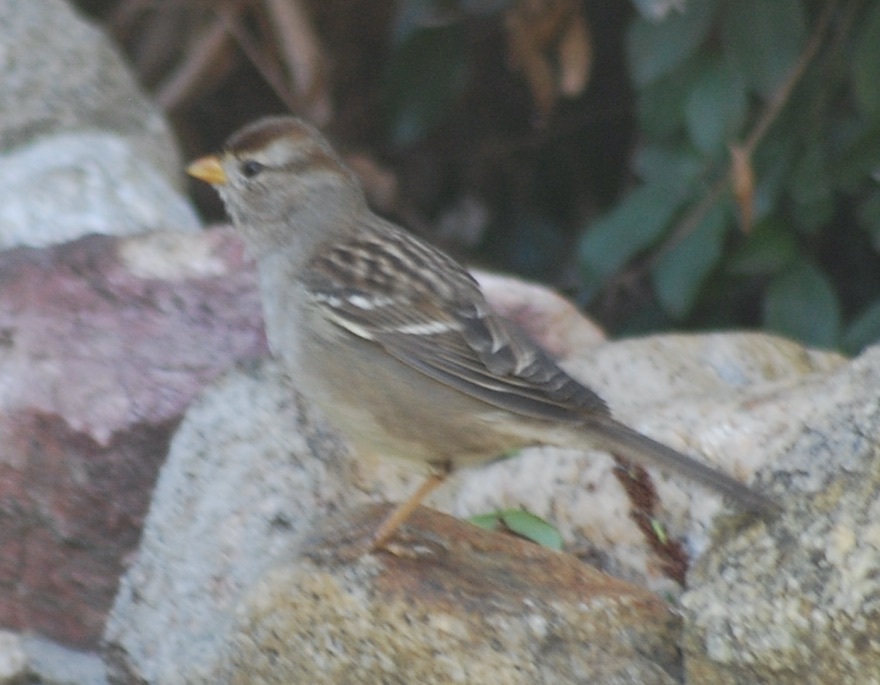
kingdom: Animalia
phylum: Chordata
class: Aves
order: Passeriformes
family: Passerellidae
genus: Zonotrichia
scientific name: Zonotrichia leucophrys
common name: White-crowned sparrow
